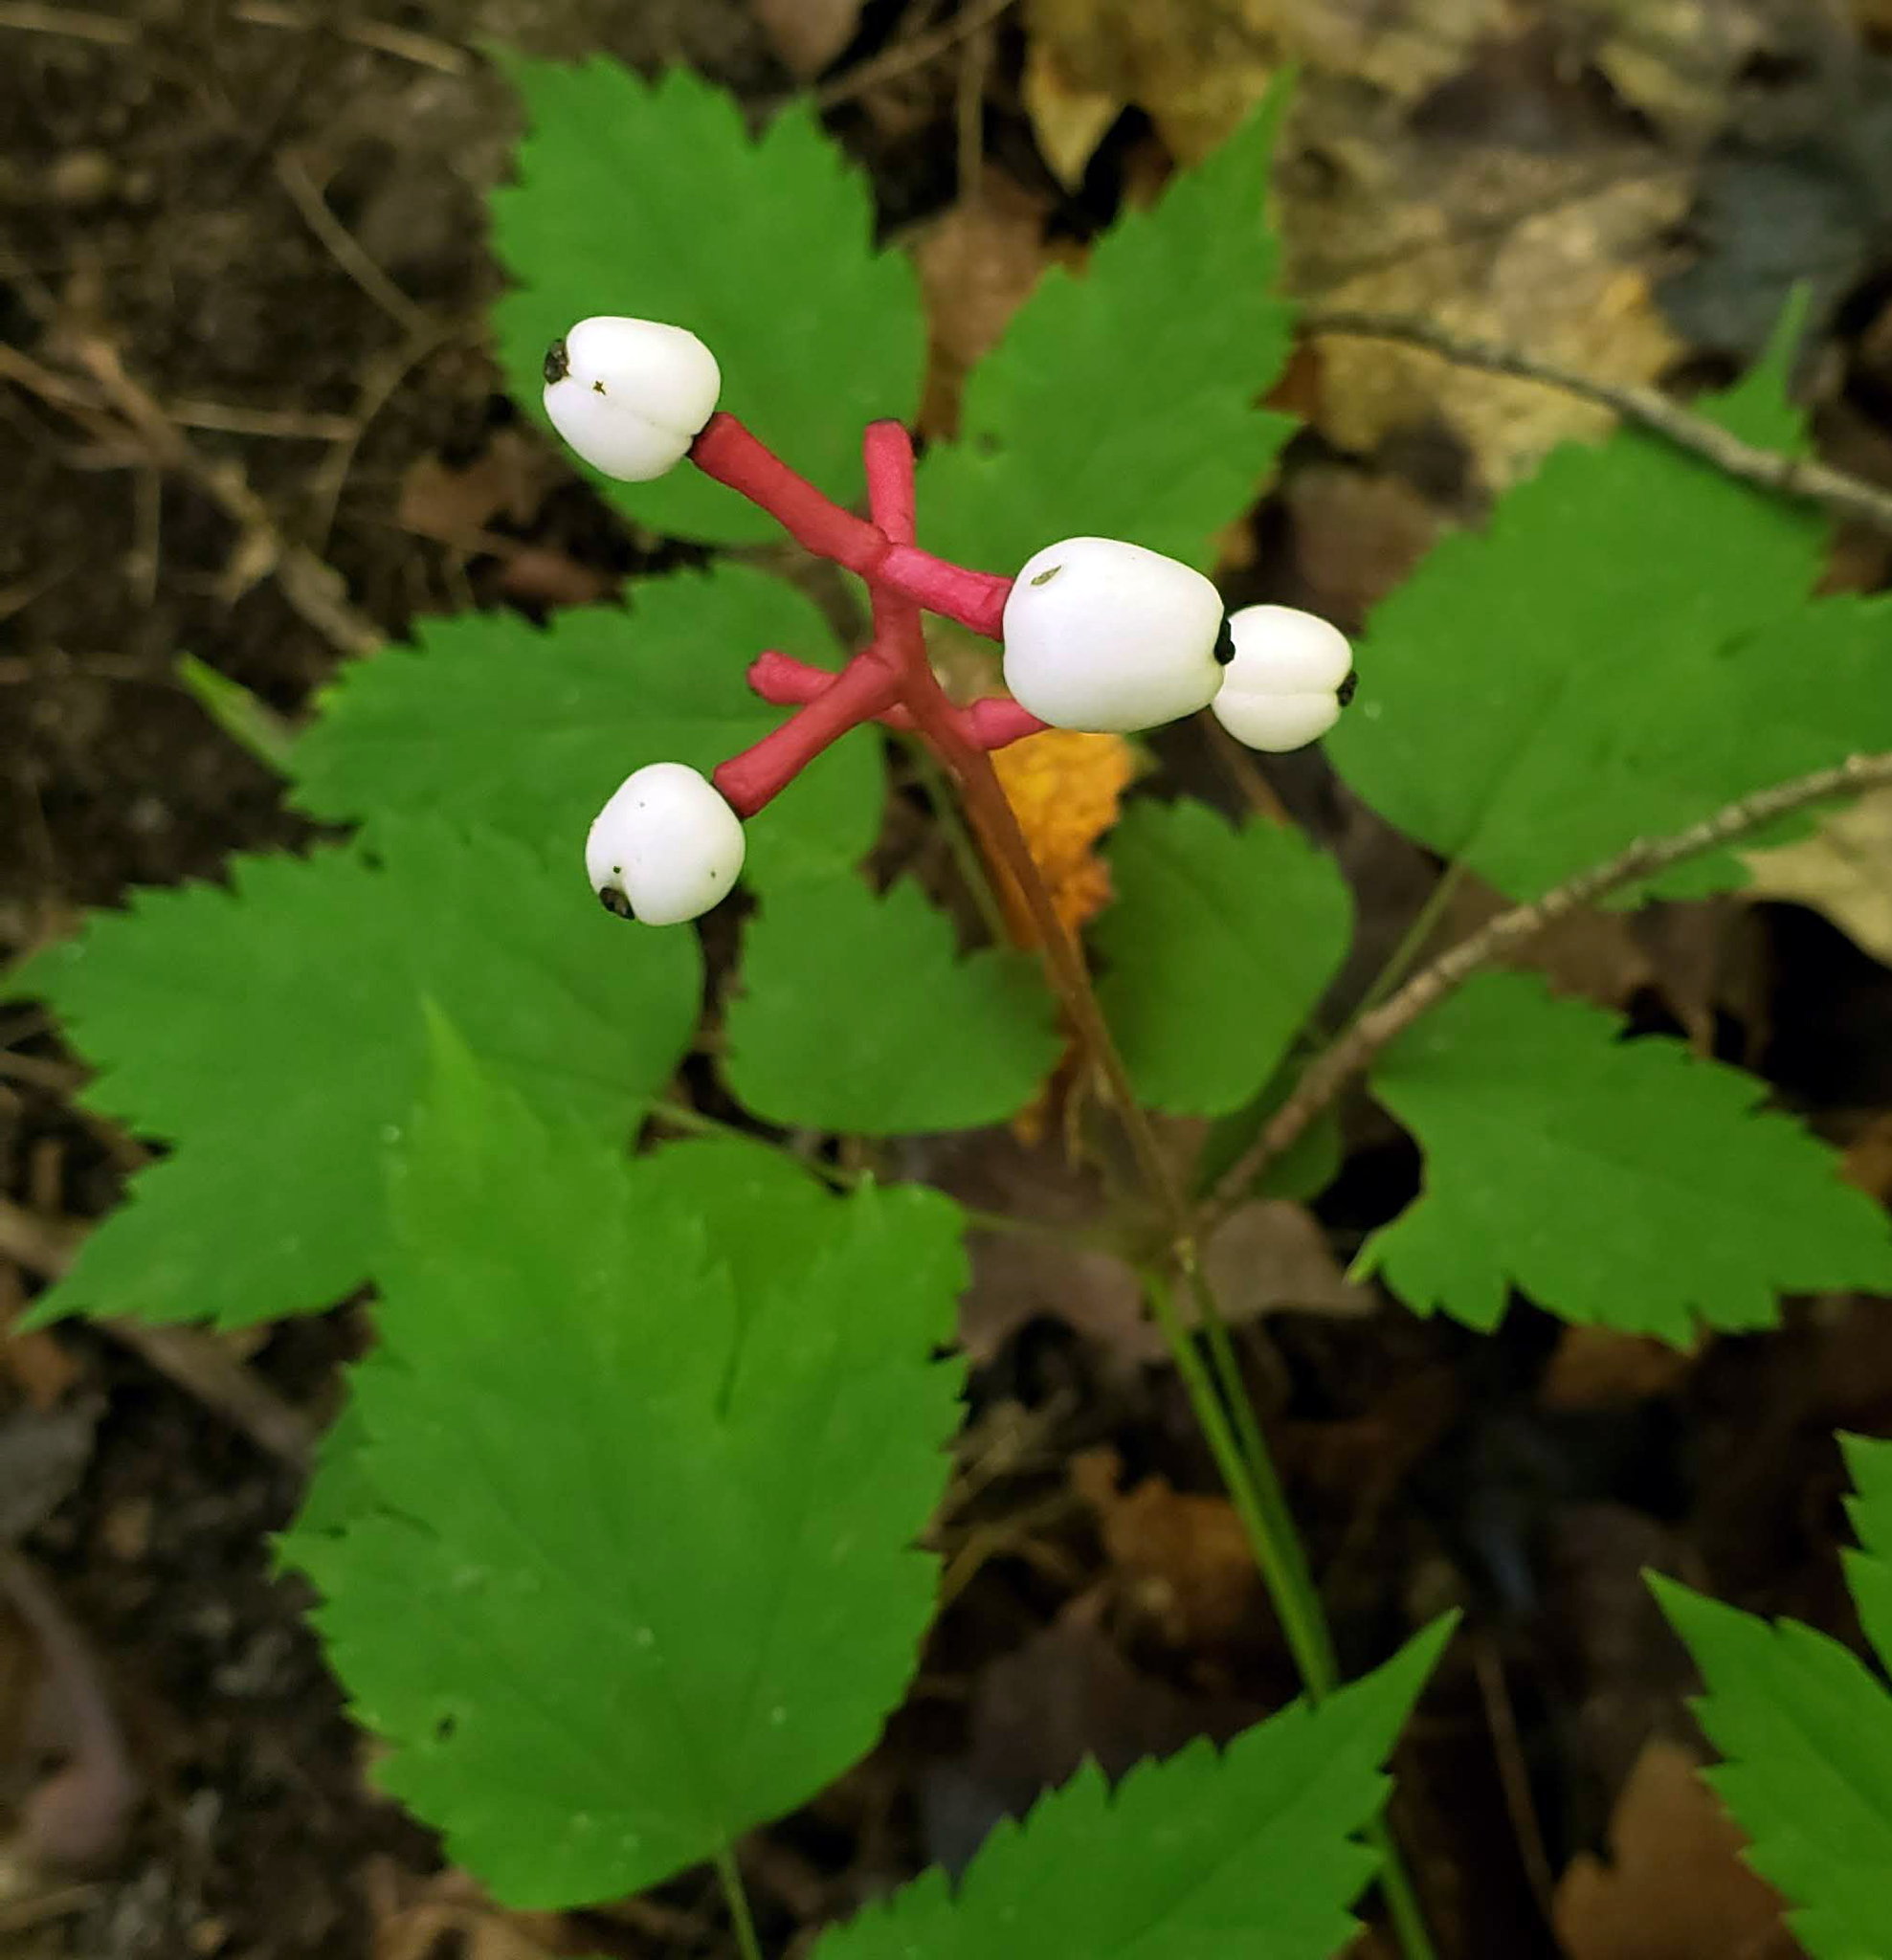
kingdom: Plantae
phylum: Tracheophyta
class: Magnoliopsida
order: Ranunculales
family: Ranunculaceae
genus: Actaea
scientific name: Actaea pachypoda
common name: Doll's-eyes
